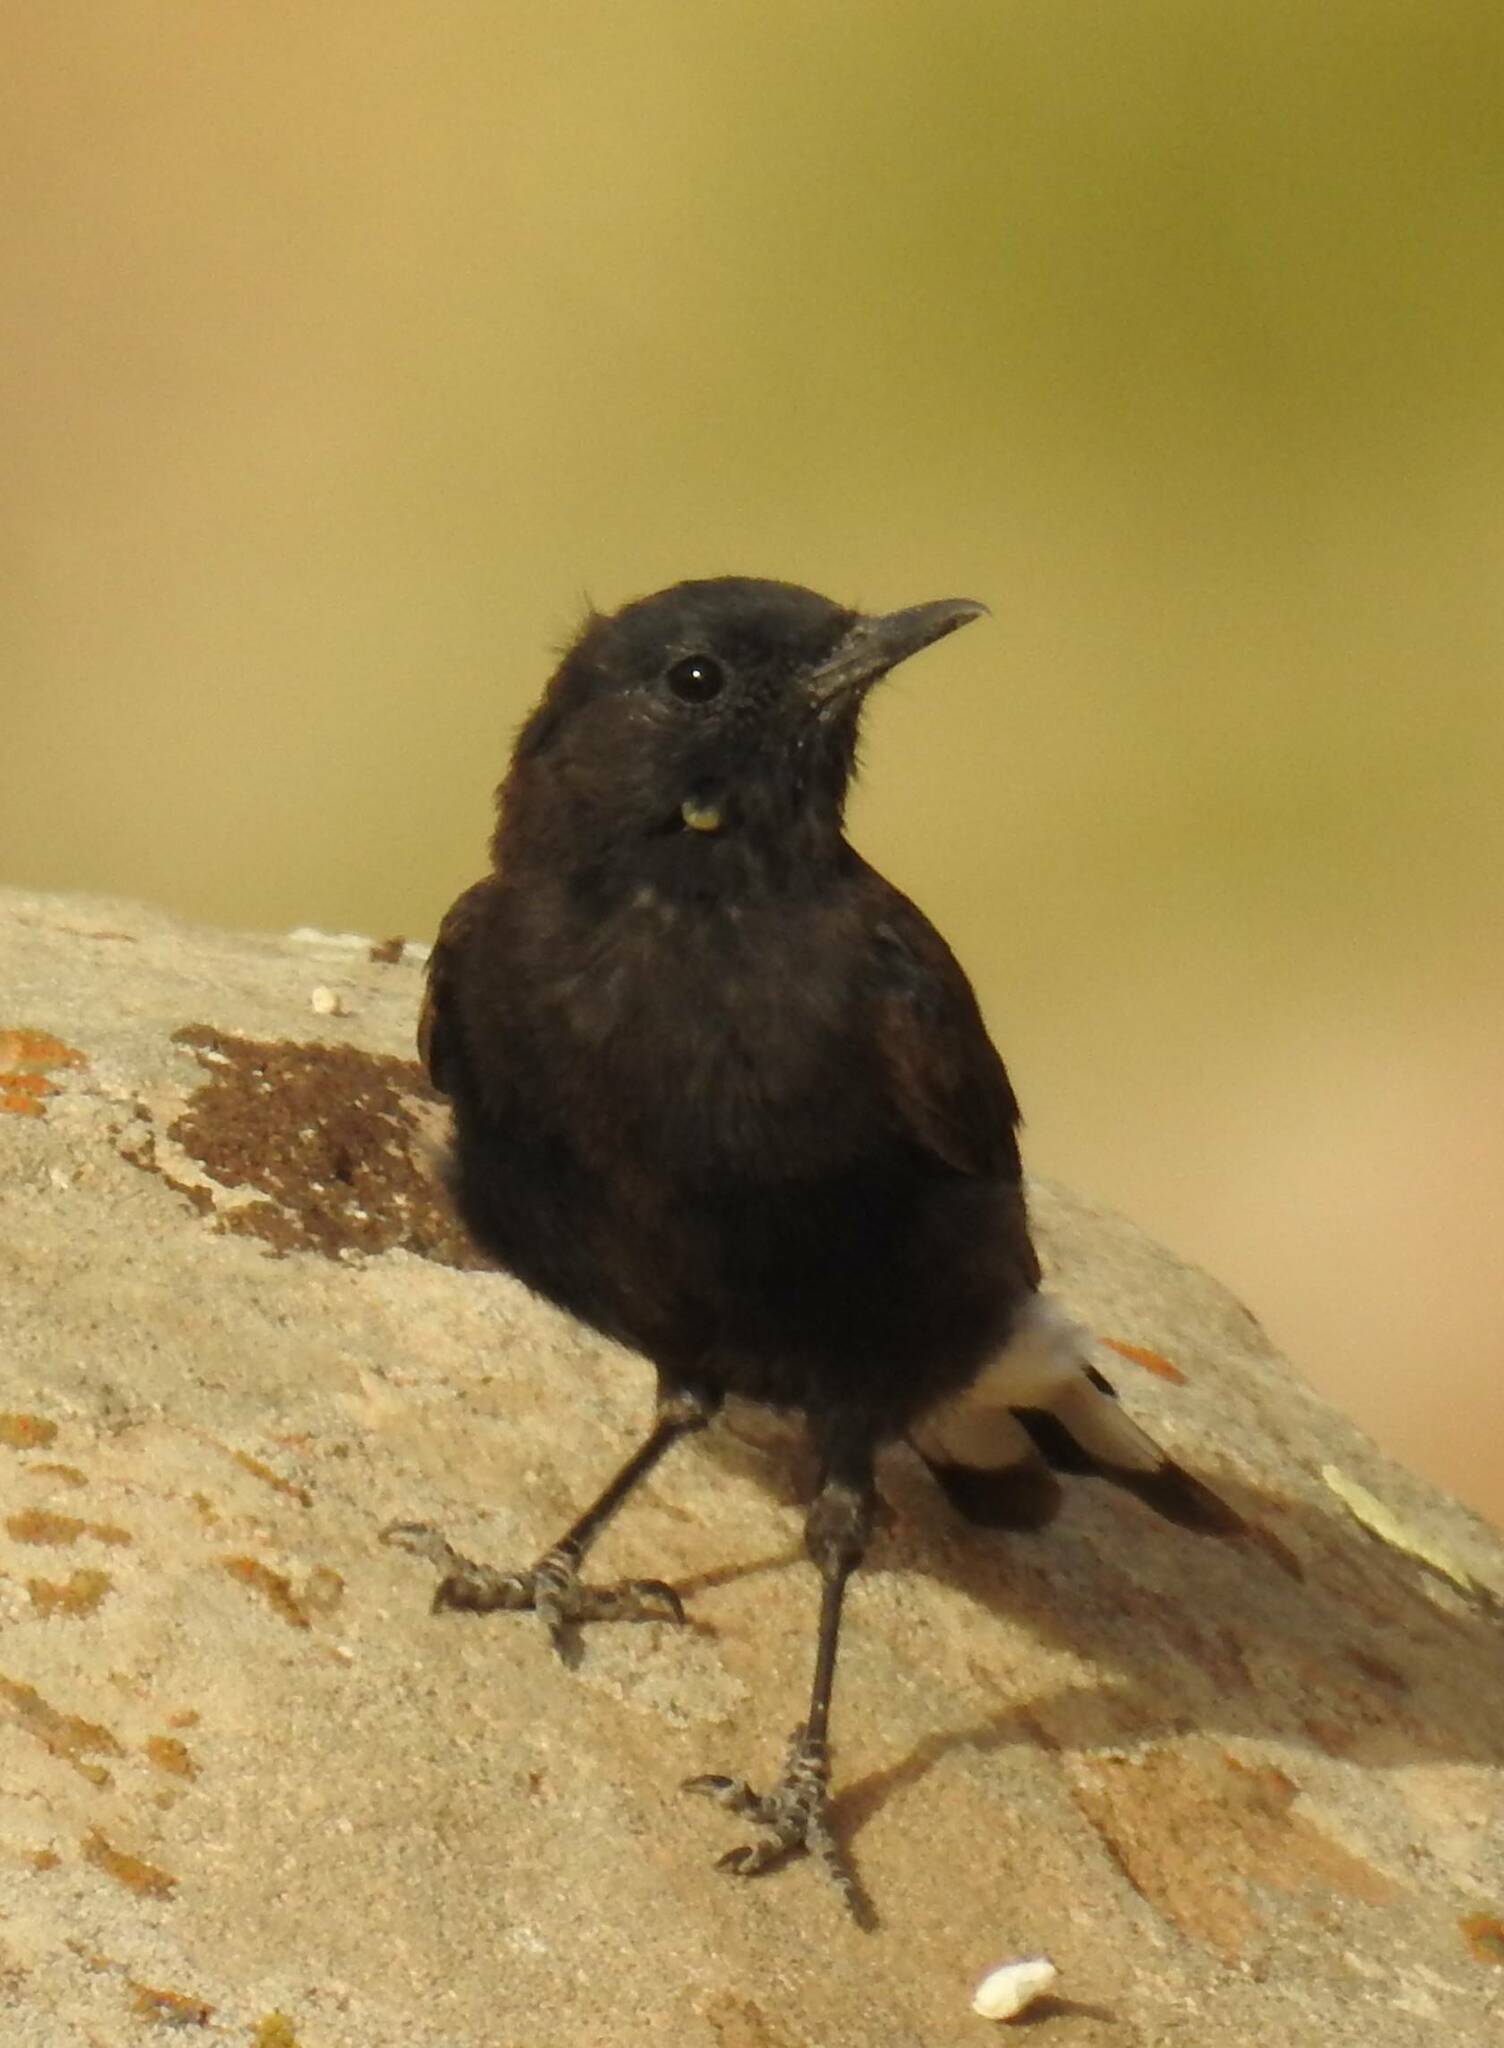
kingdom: Animalia
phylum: Chordata
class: Aves
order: Passeriformes
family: Muscicapidae
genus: Oenanthe
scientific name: Oenanthe leucura
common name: Black wheatear
